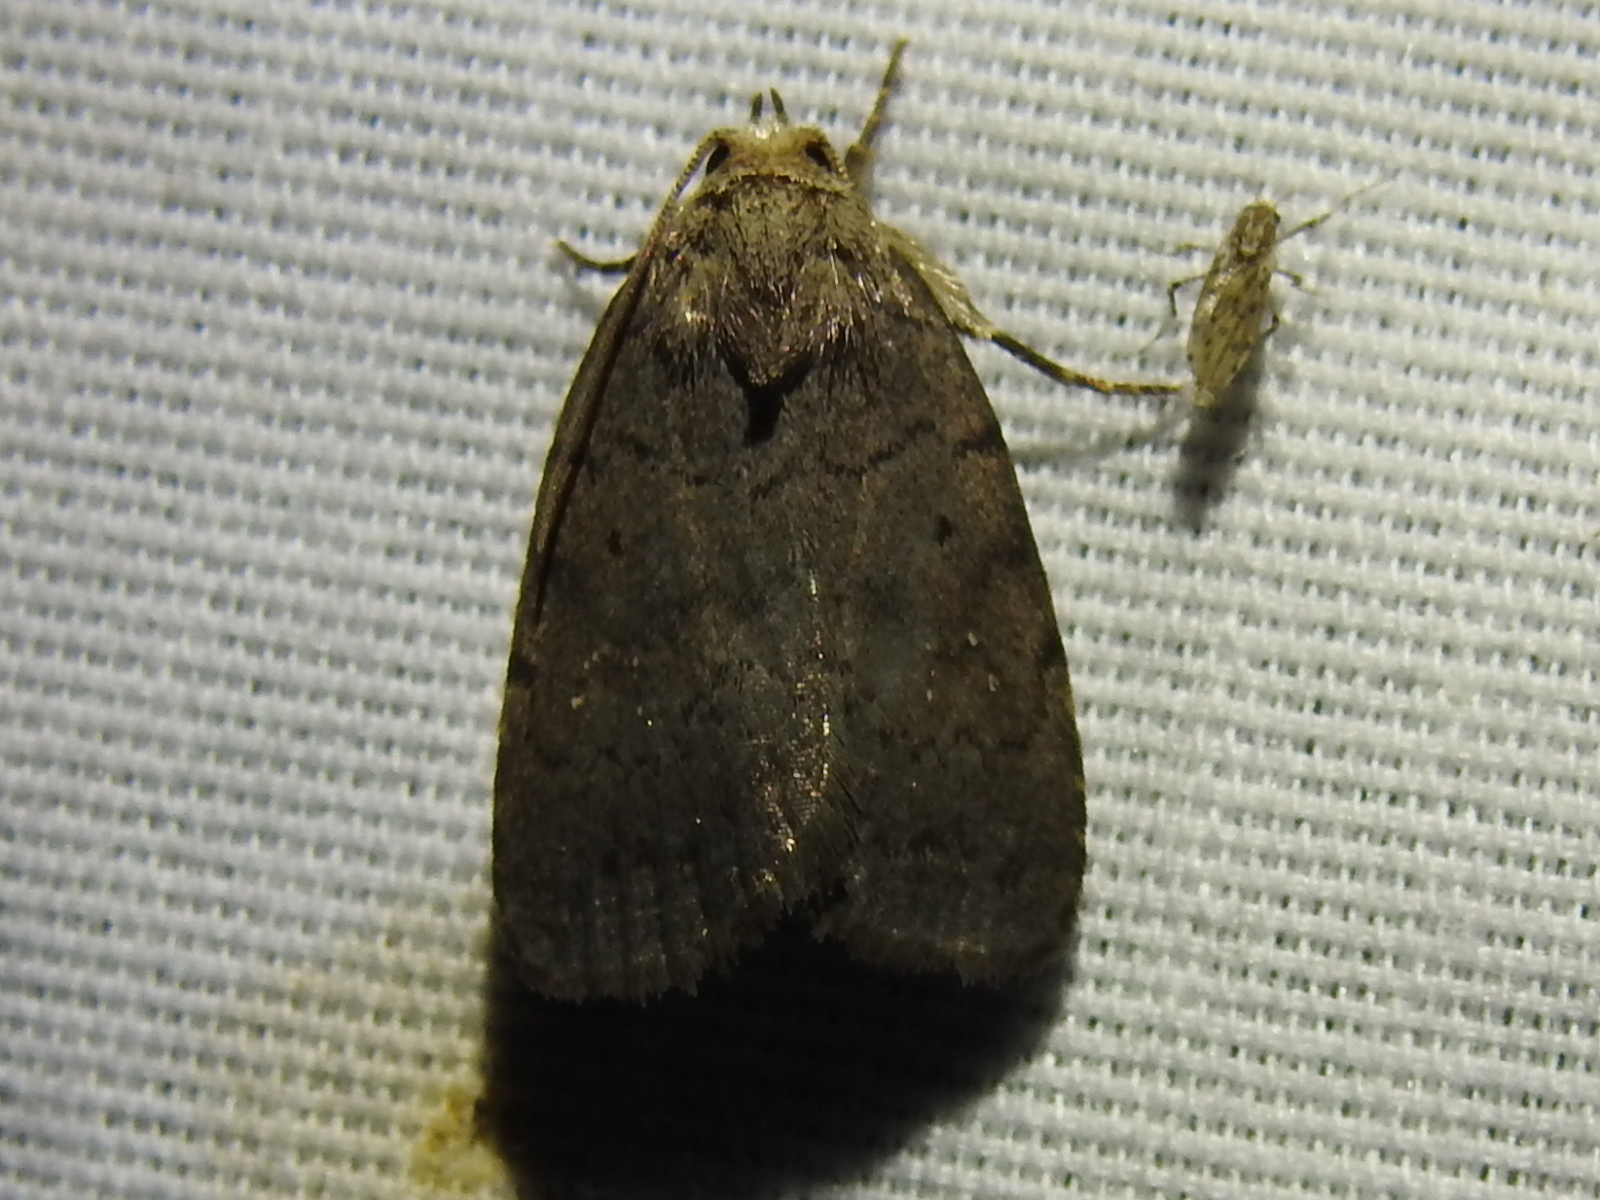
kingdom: Animalia
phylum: Arthropoda
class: Insecta
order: Lepidoptera
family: Noctuidae
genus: Athetis
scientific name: Athetis tarda
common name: Slowpoke moth
